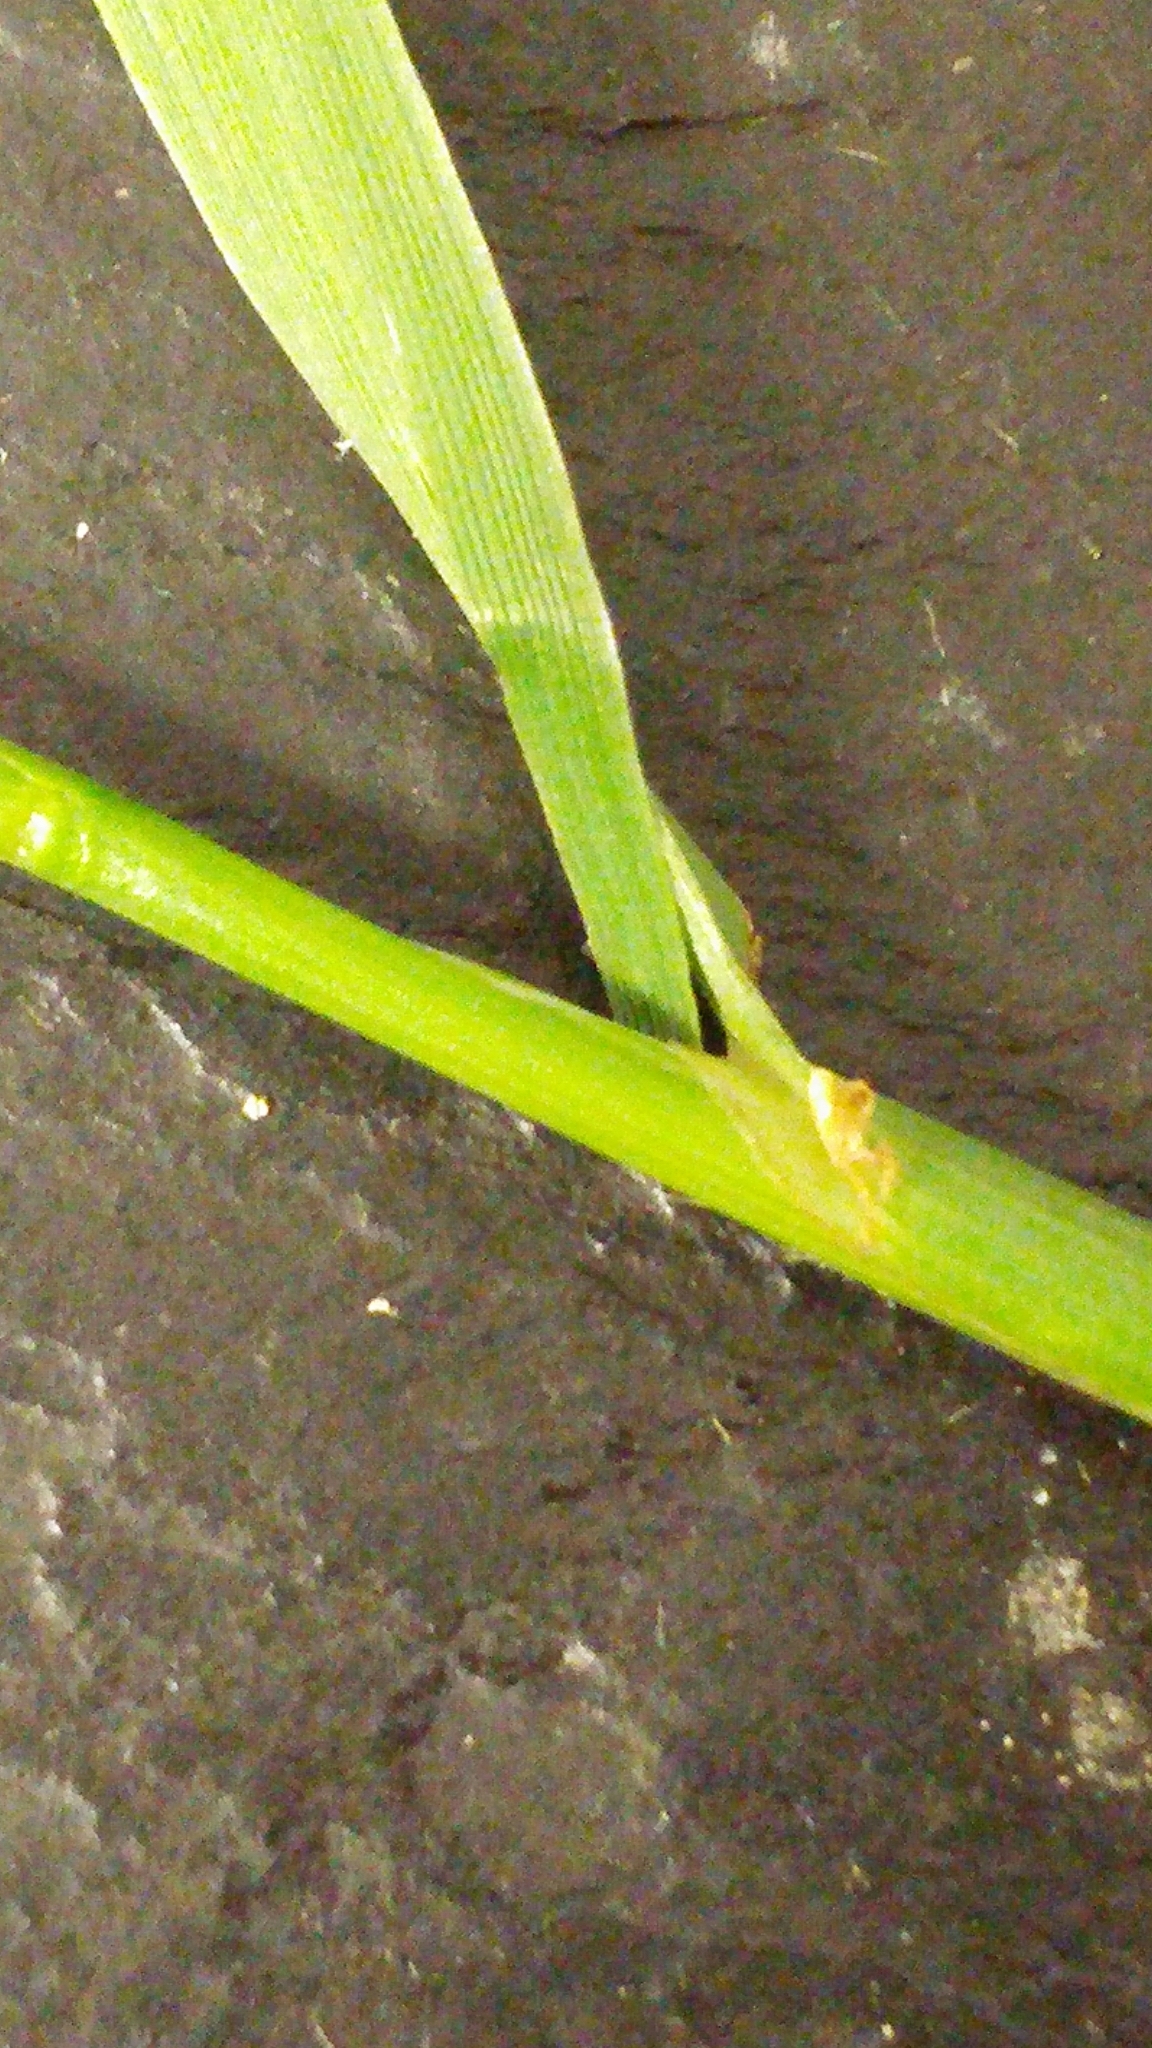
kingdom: Plantae
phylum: Tracheophyta
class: Liliopsida
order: Poales
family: Poaceae
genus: Elymus
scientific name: Elymus repens
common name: Quackgrass
